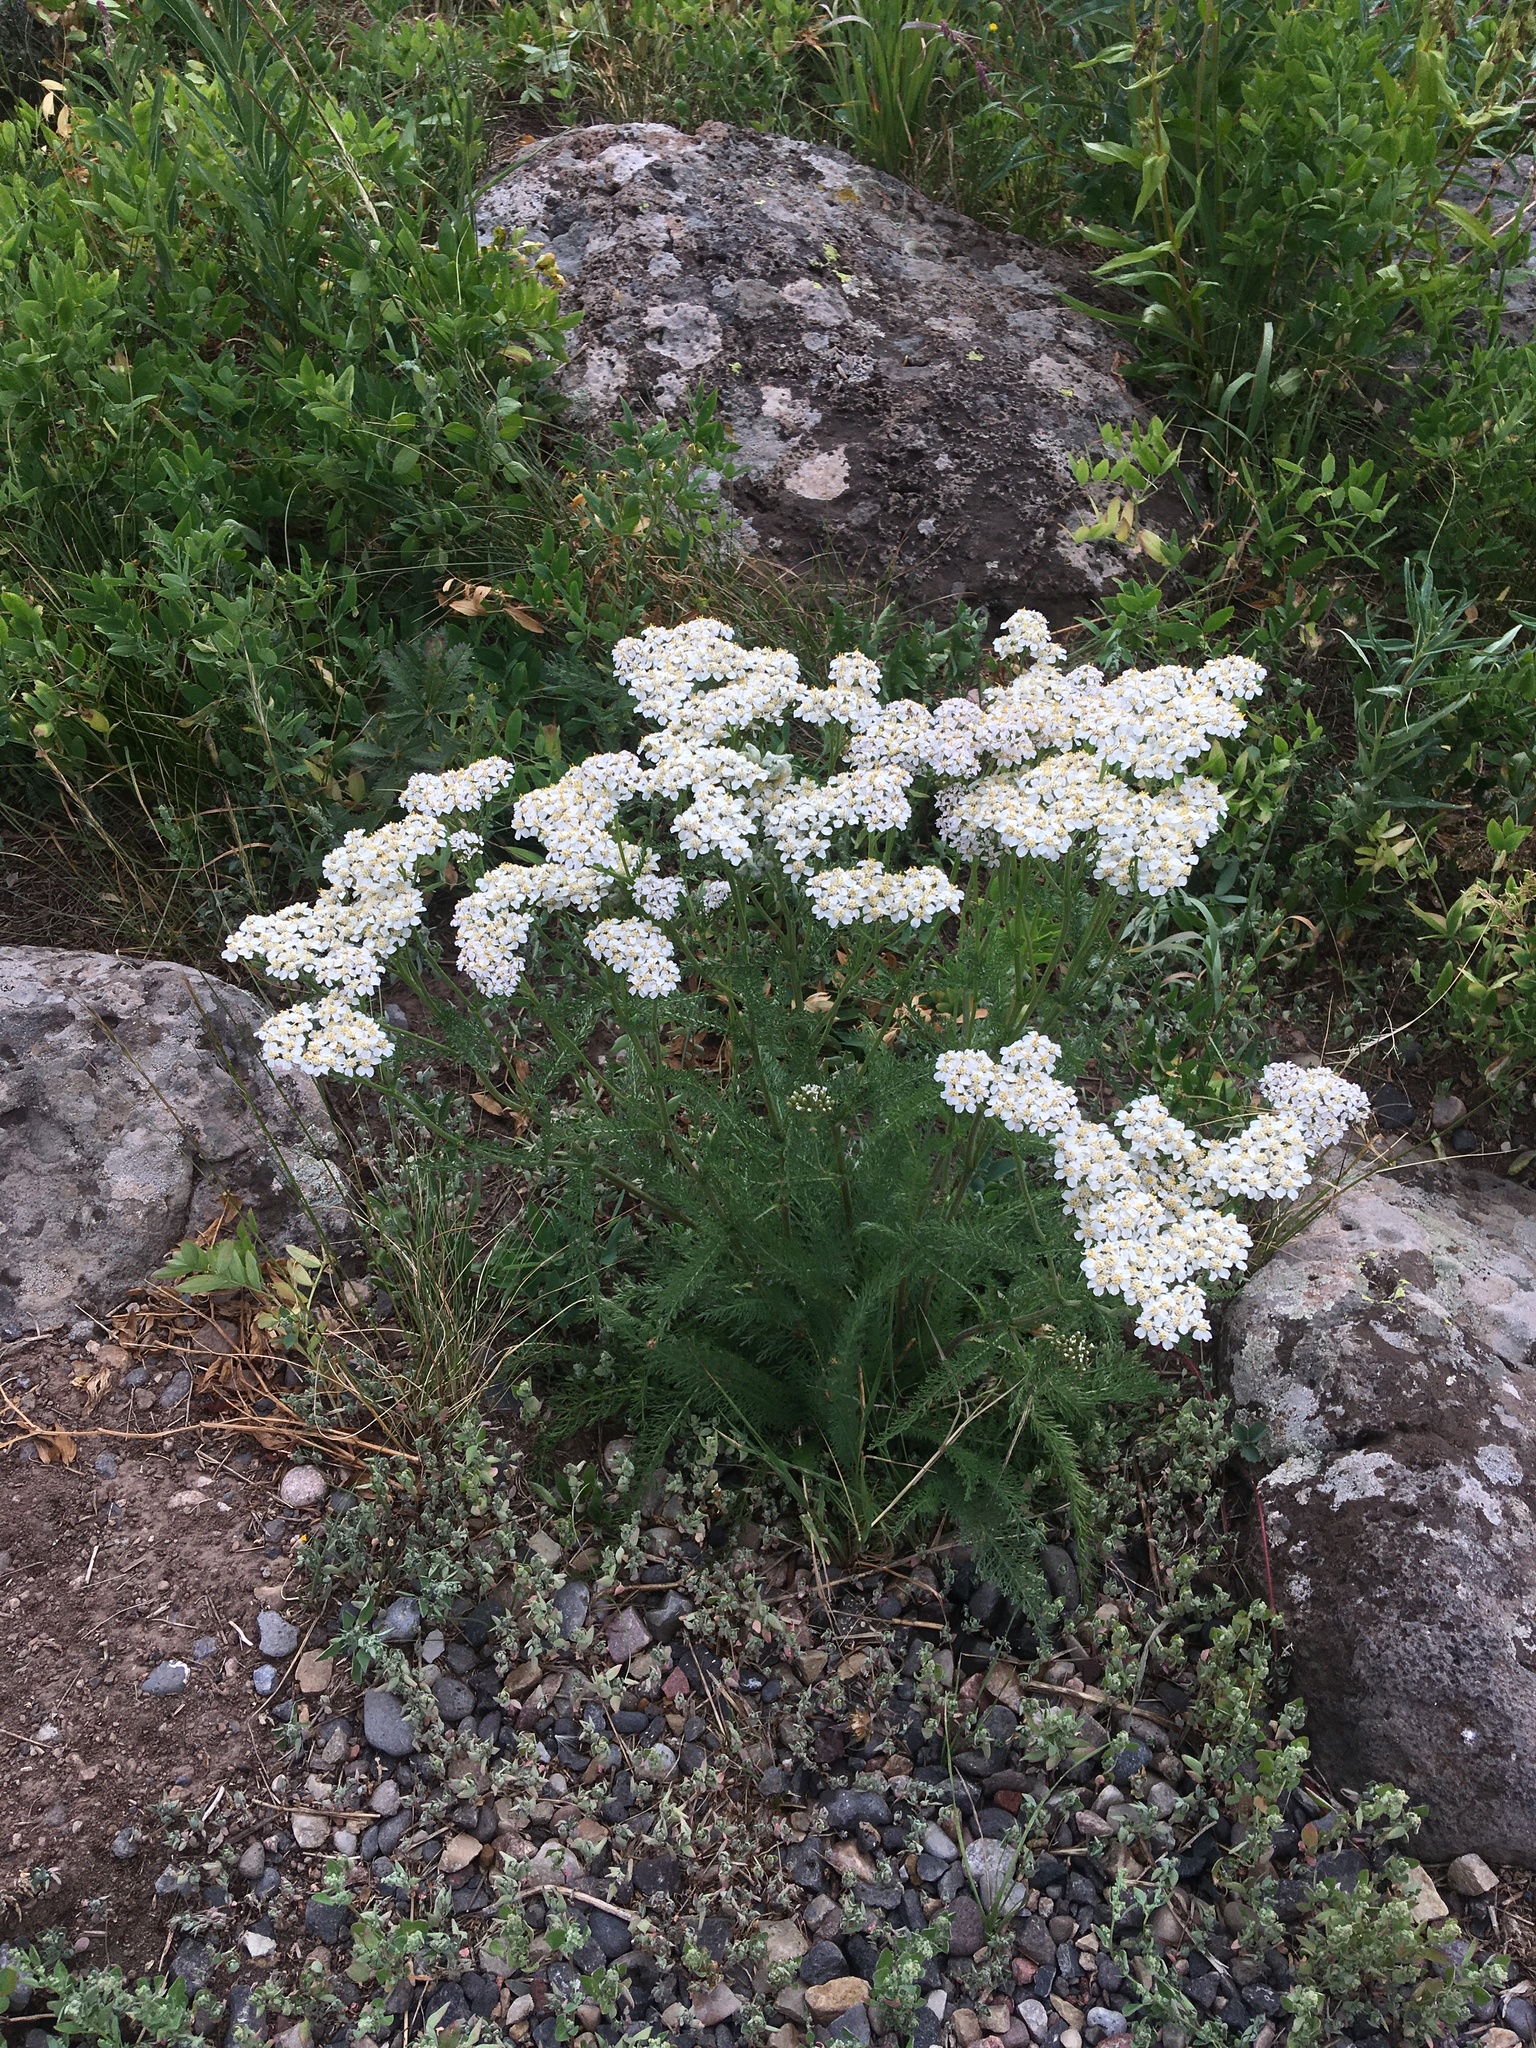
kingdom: Plantae
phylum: Tracheophyta
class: Magnoliopsida
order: Asterales
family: Asteraceae
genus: Achillea
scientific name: Achillea millefolium
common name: Yarrow
